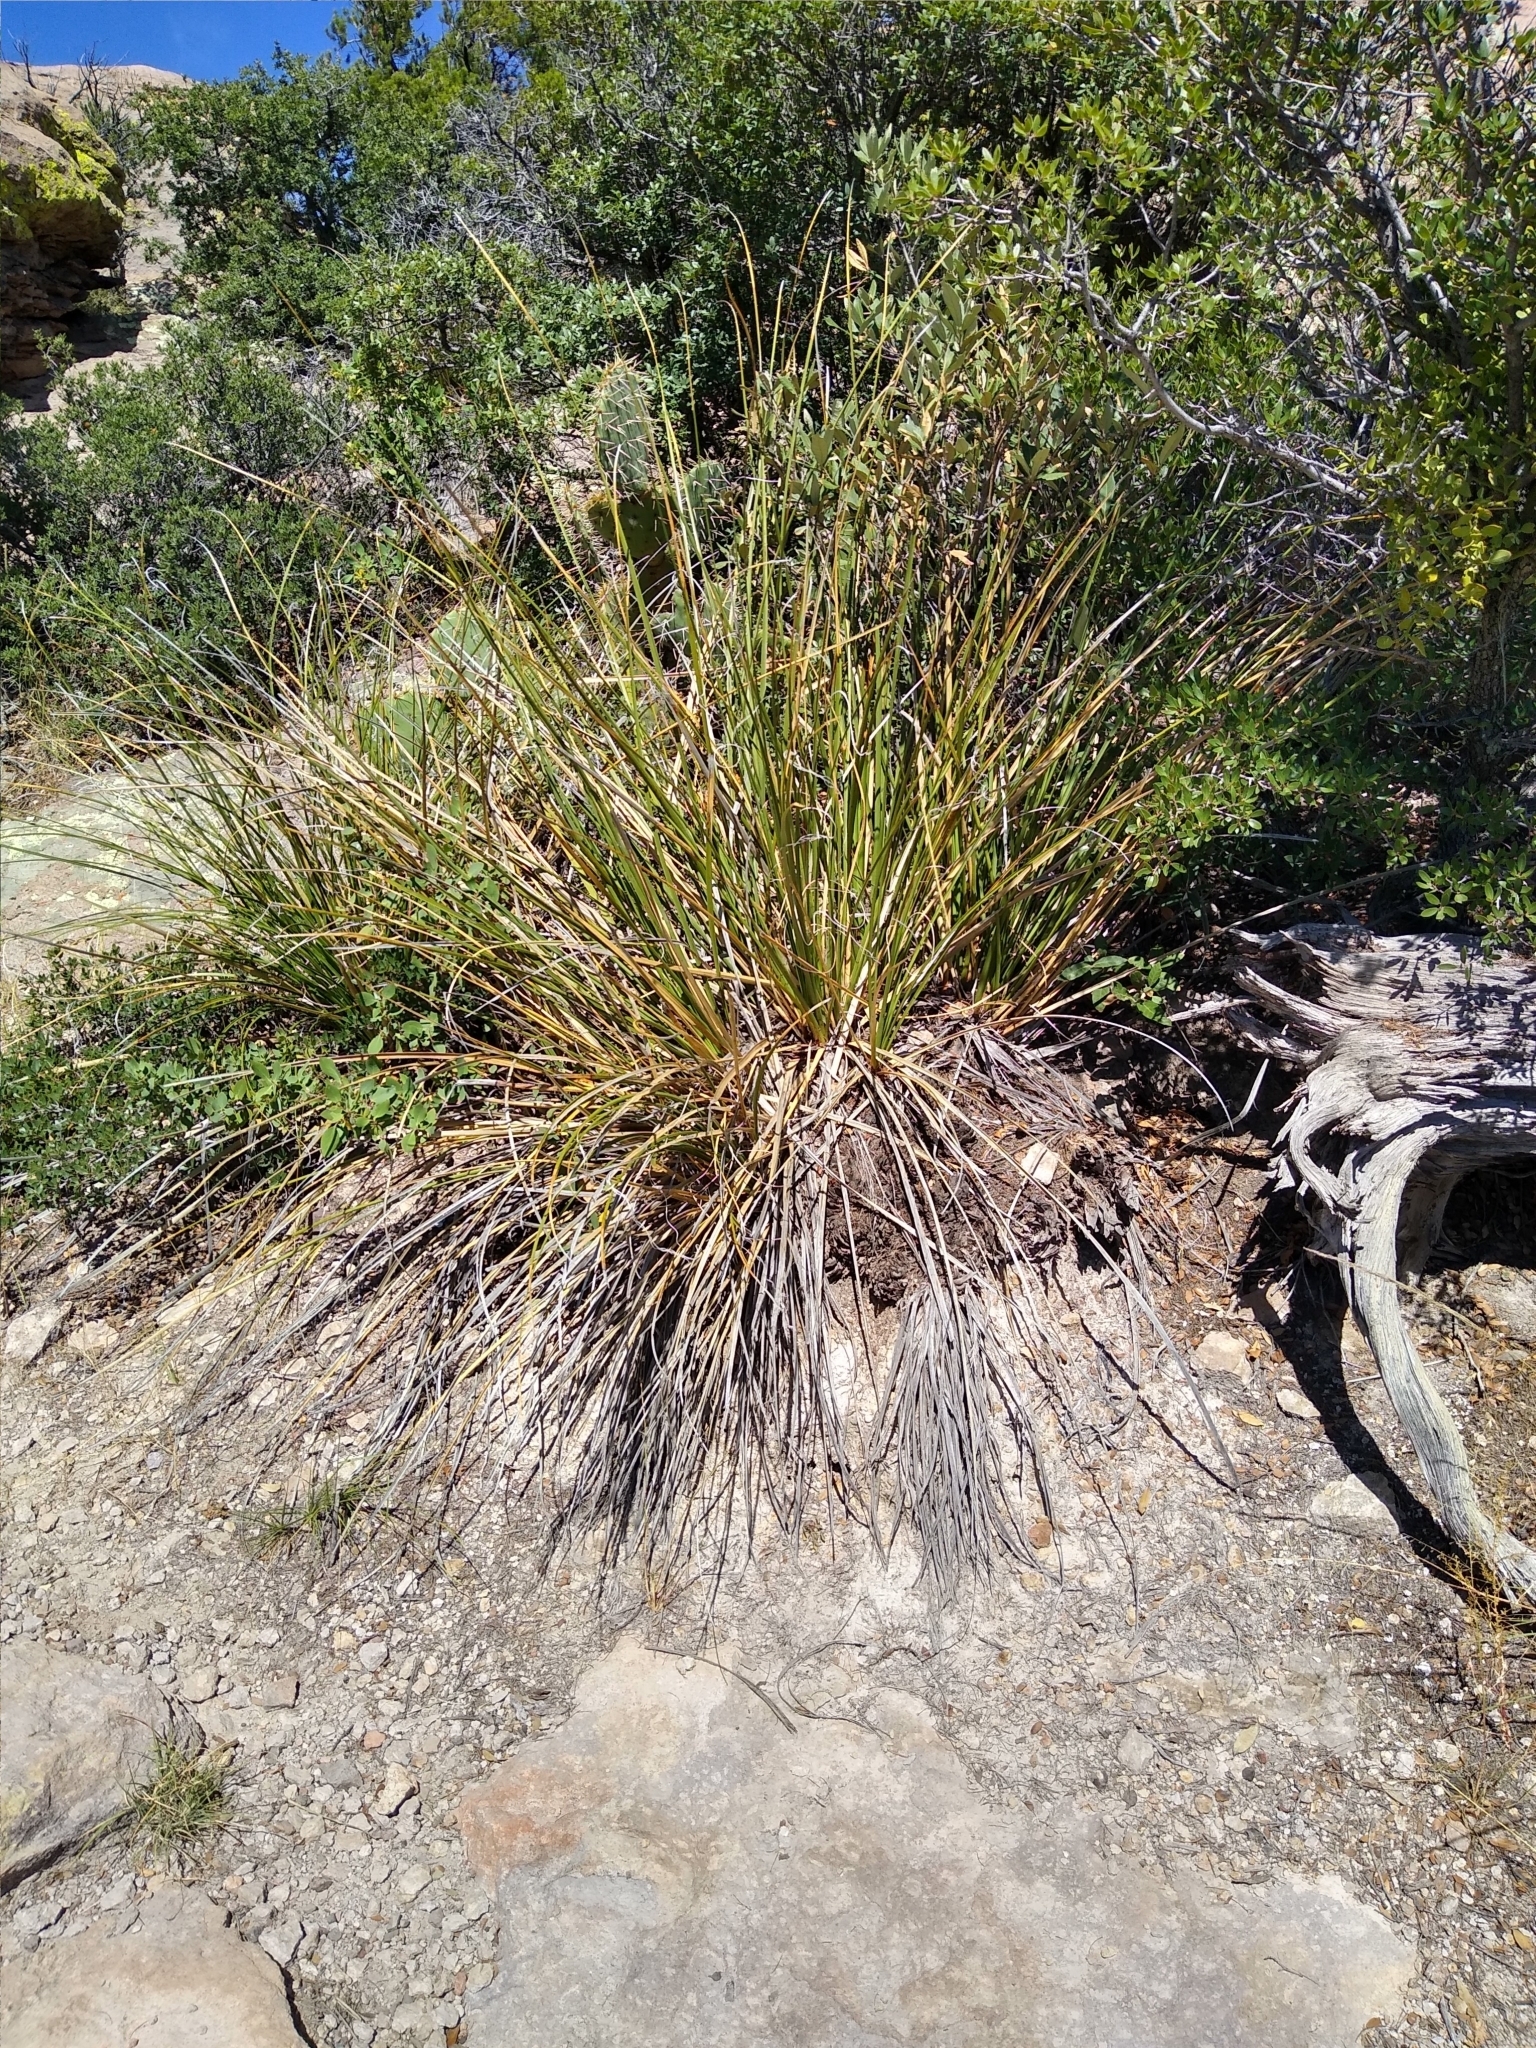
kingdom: Plantae
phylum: Tracheophyta
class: Liliopsida
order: Asparagales
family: Asparagaceae
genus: Nolina
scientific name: Nolina microcarpa
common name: Bear-grass
